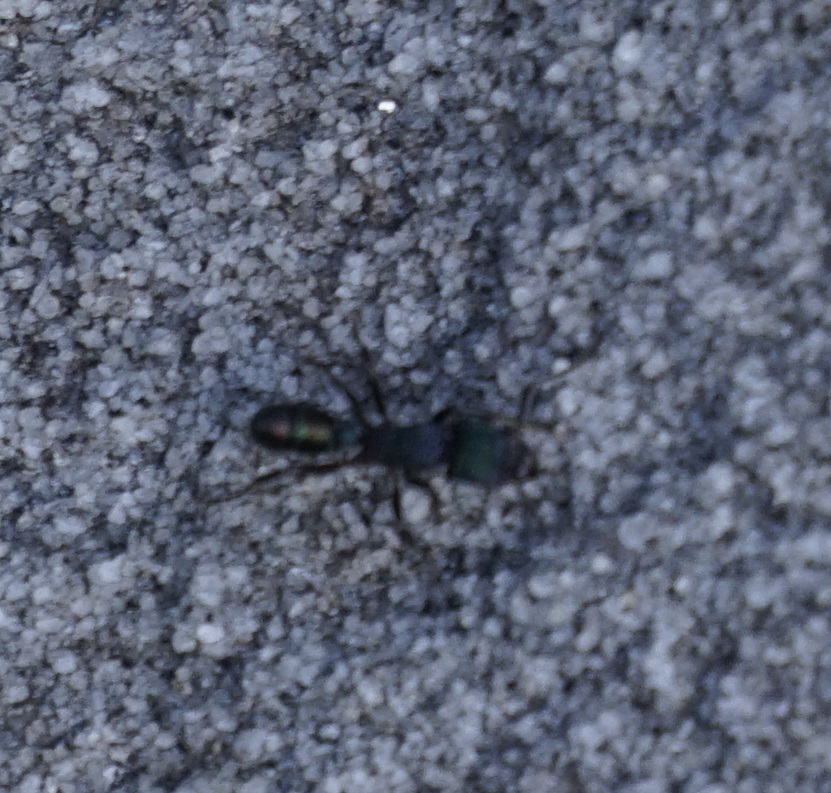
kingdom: Animalia
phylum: Arthropoda
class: Insecta
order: Hymenoptera
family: Formicidae
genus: Rhytidoponera
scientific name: Rhytidoponera metallica
